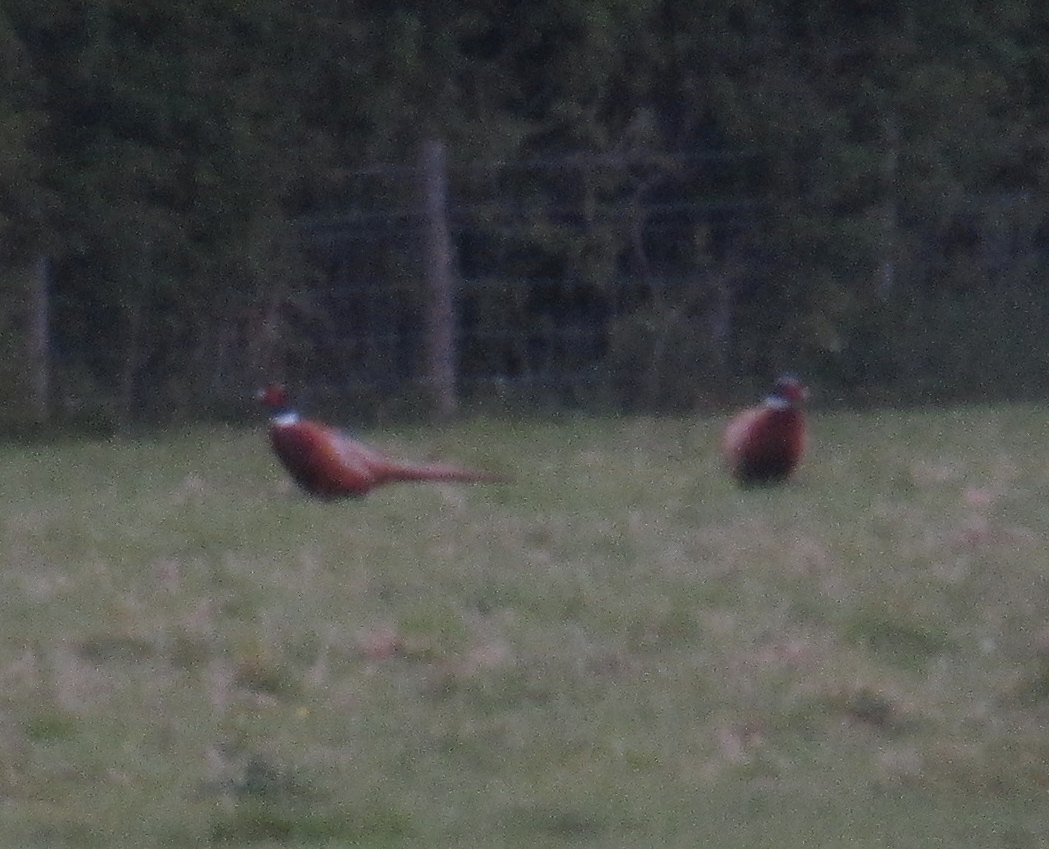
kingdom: Animalia
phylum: Chordata
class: Aves
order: Galliformes
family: Phasianidae
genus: Phasianus
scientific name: Phasianus colchicus
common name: Common pheasant
